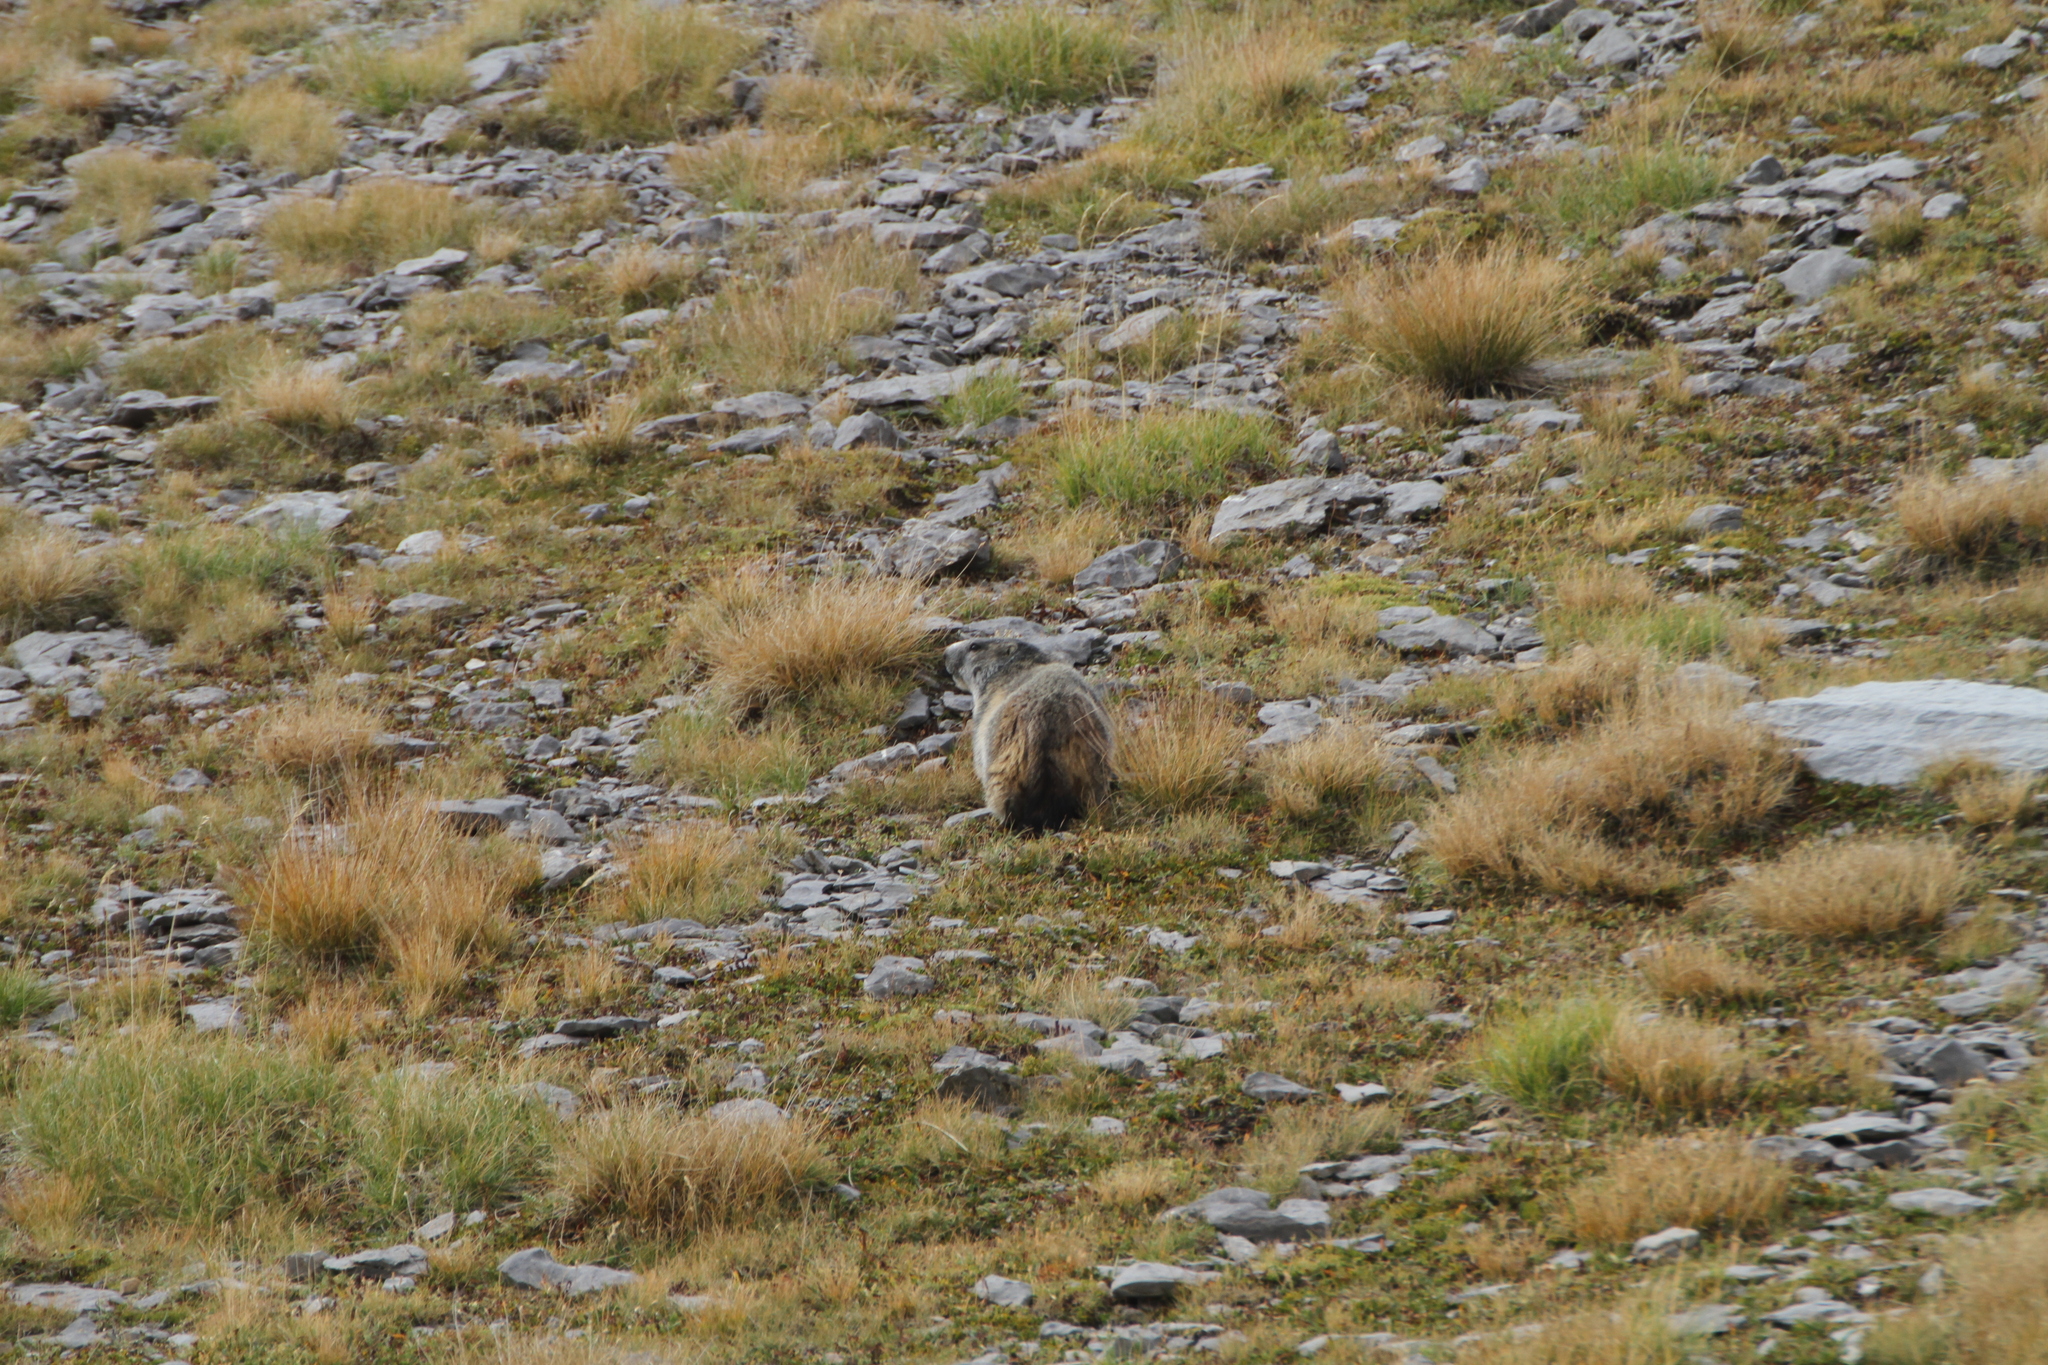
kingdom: Animalia
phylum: Chordata
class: Mammalia
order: Rodentia
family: Sciuridae
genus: Marmota
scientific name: Marmota marmota
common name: Alpine marmot
